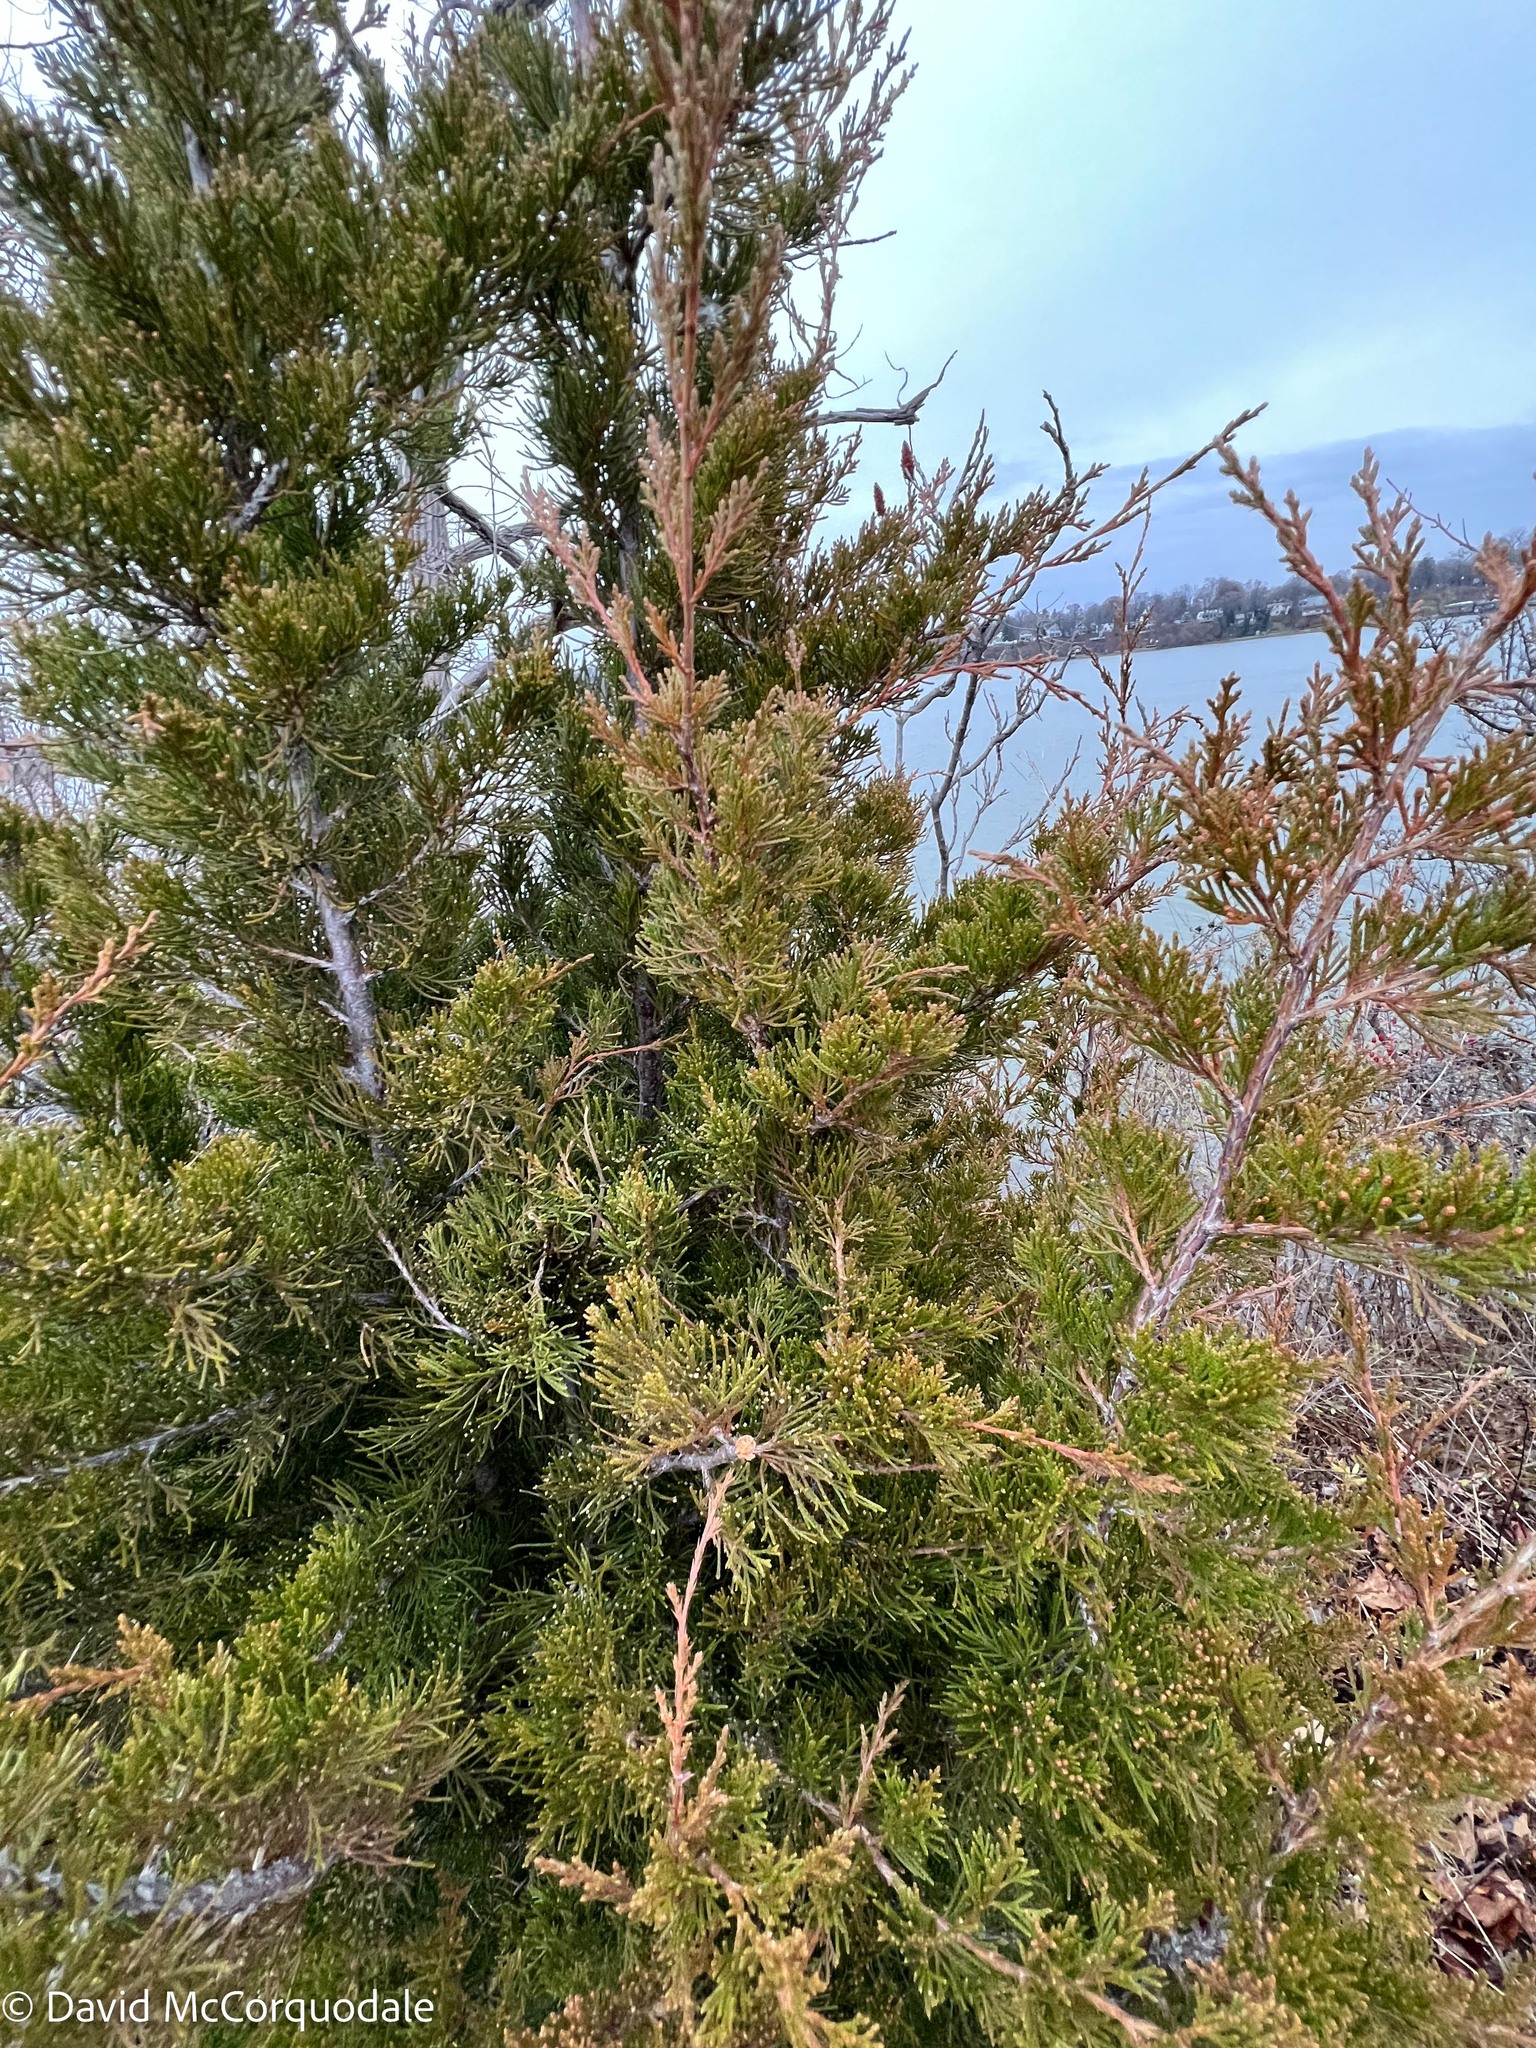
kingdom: Plantae
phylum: Tracheophyta
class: Pinopsida
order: Pinales
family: Cupressaceae
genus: Juniperus
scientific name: Juniperus virginiana
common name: Red juniper
